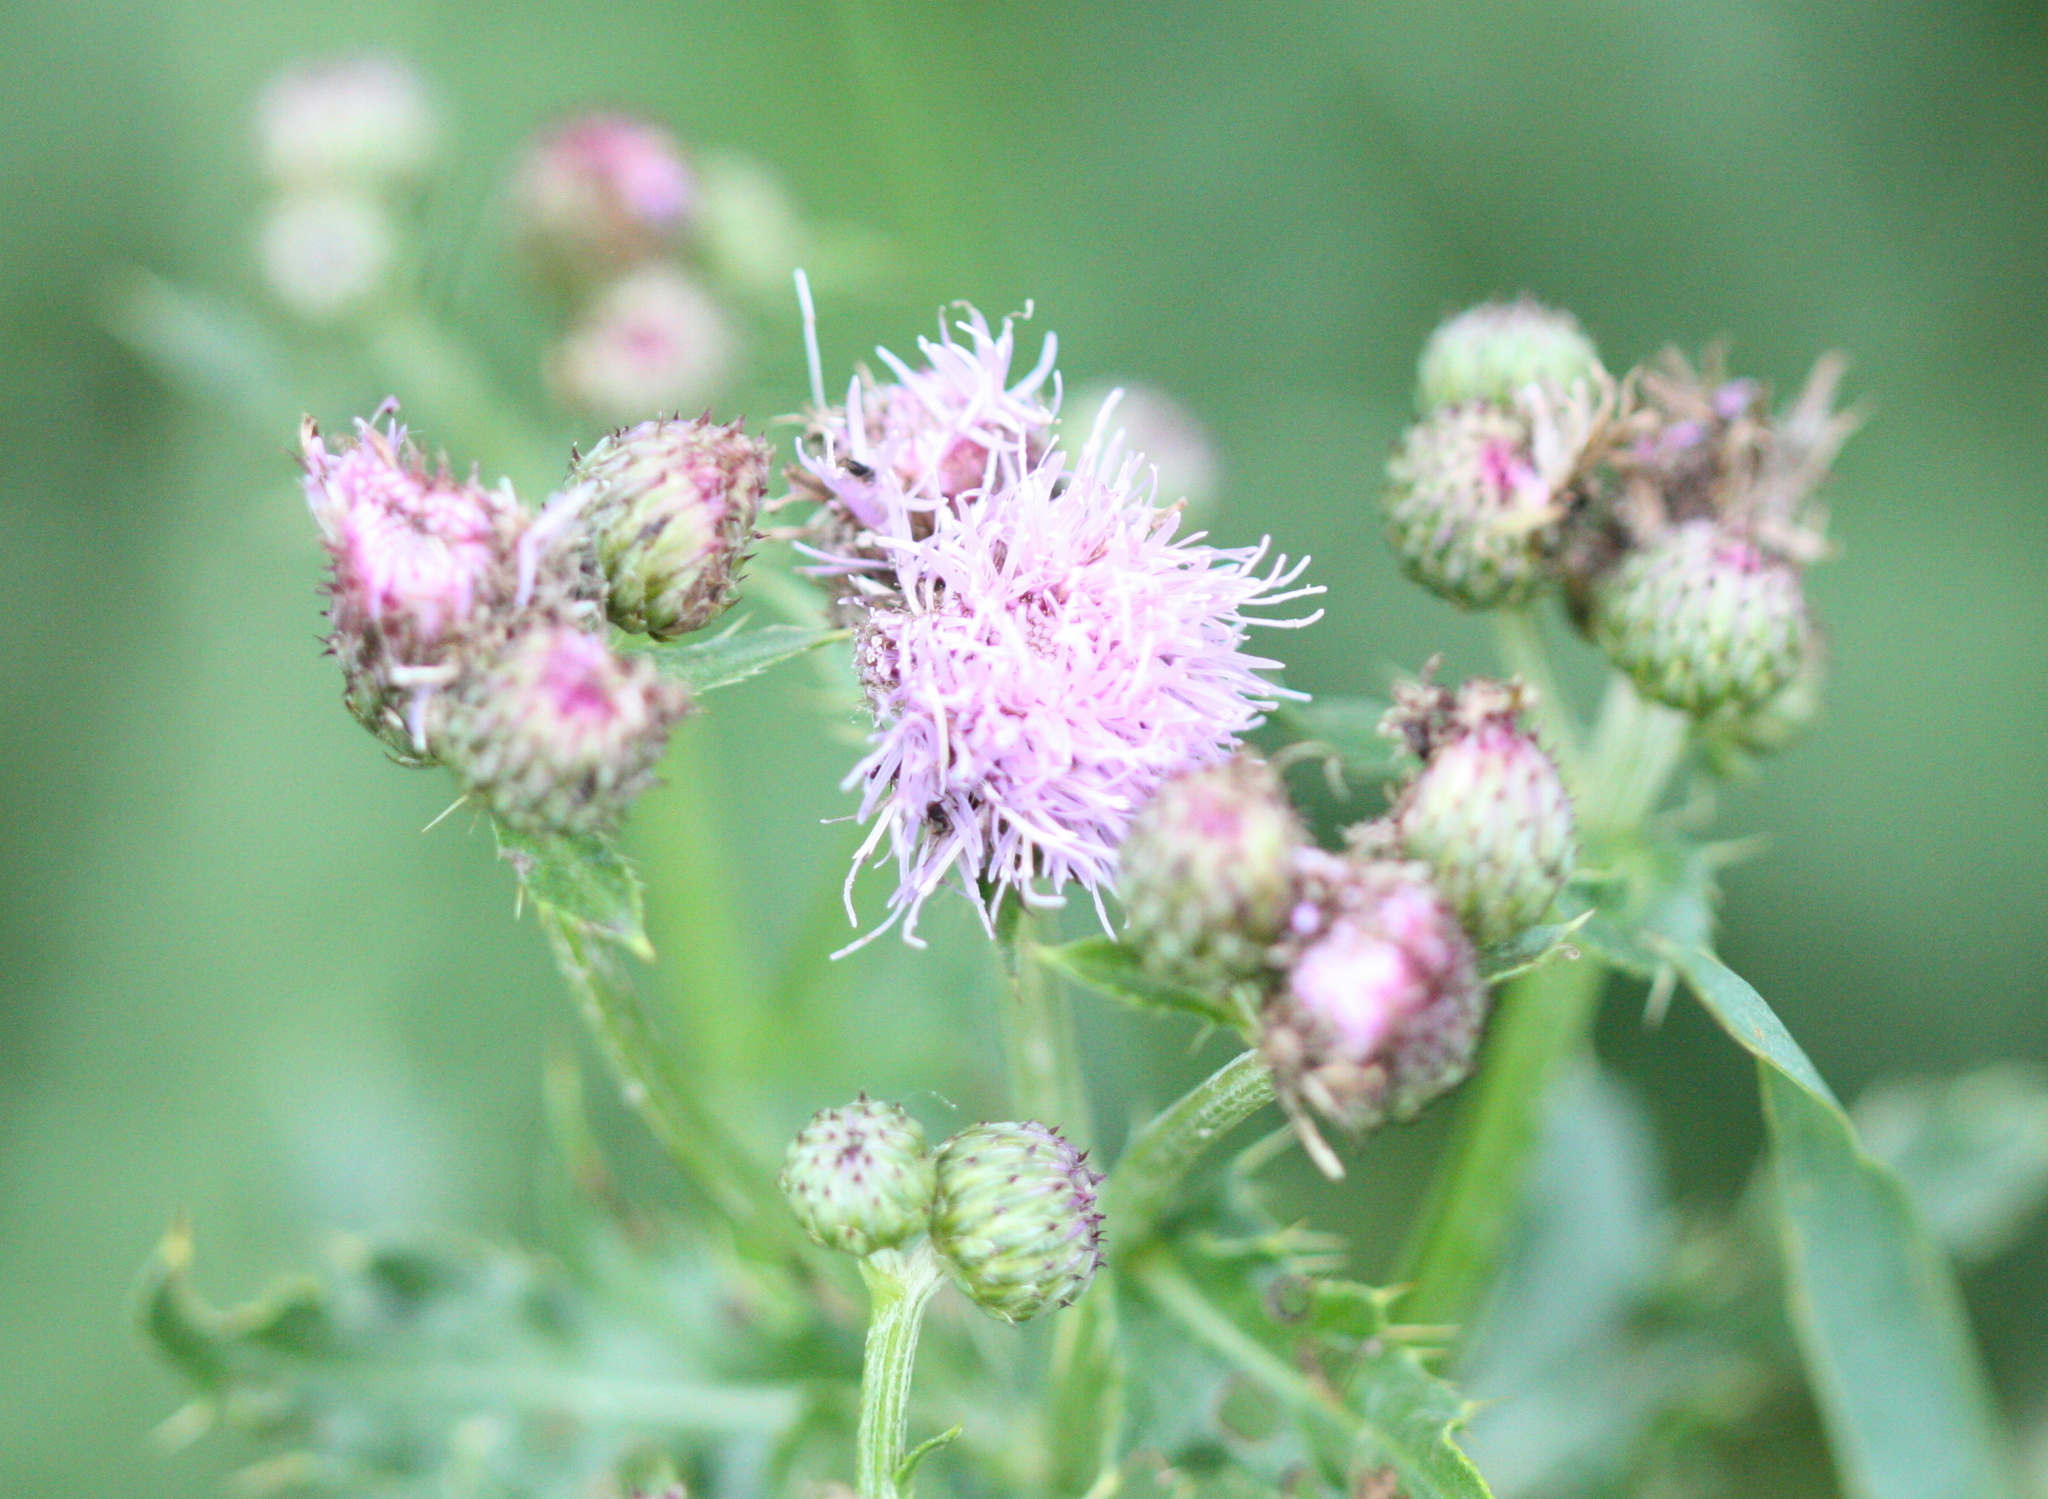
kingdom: Plantae
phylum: Tracheophyta
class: Magnoliopsida
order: Asterales
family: Asteraceae
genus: Cirsium
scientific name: Cirsium arvense
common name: Creeping thistle
